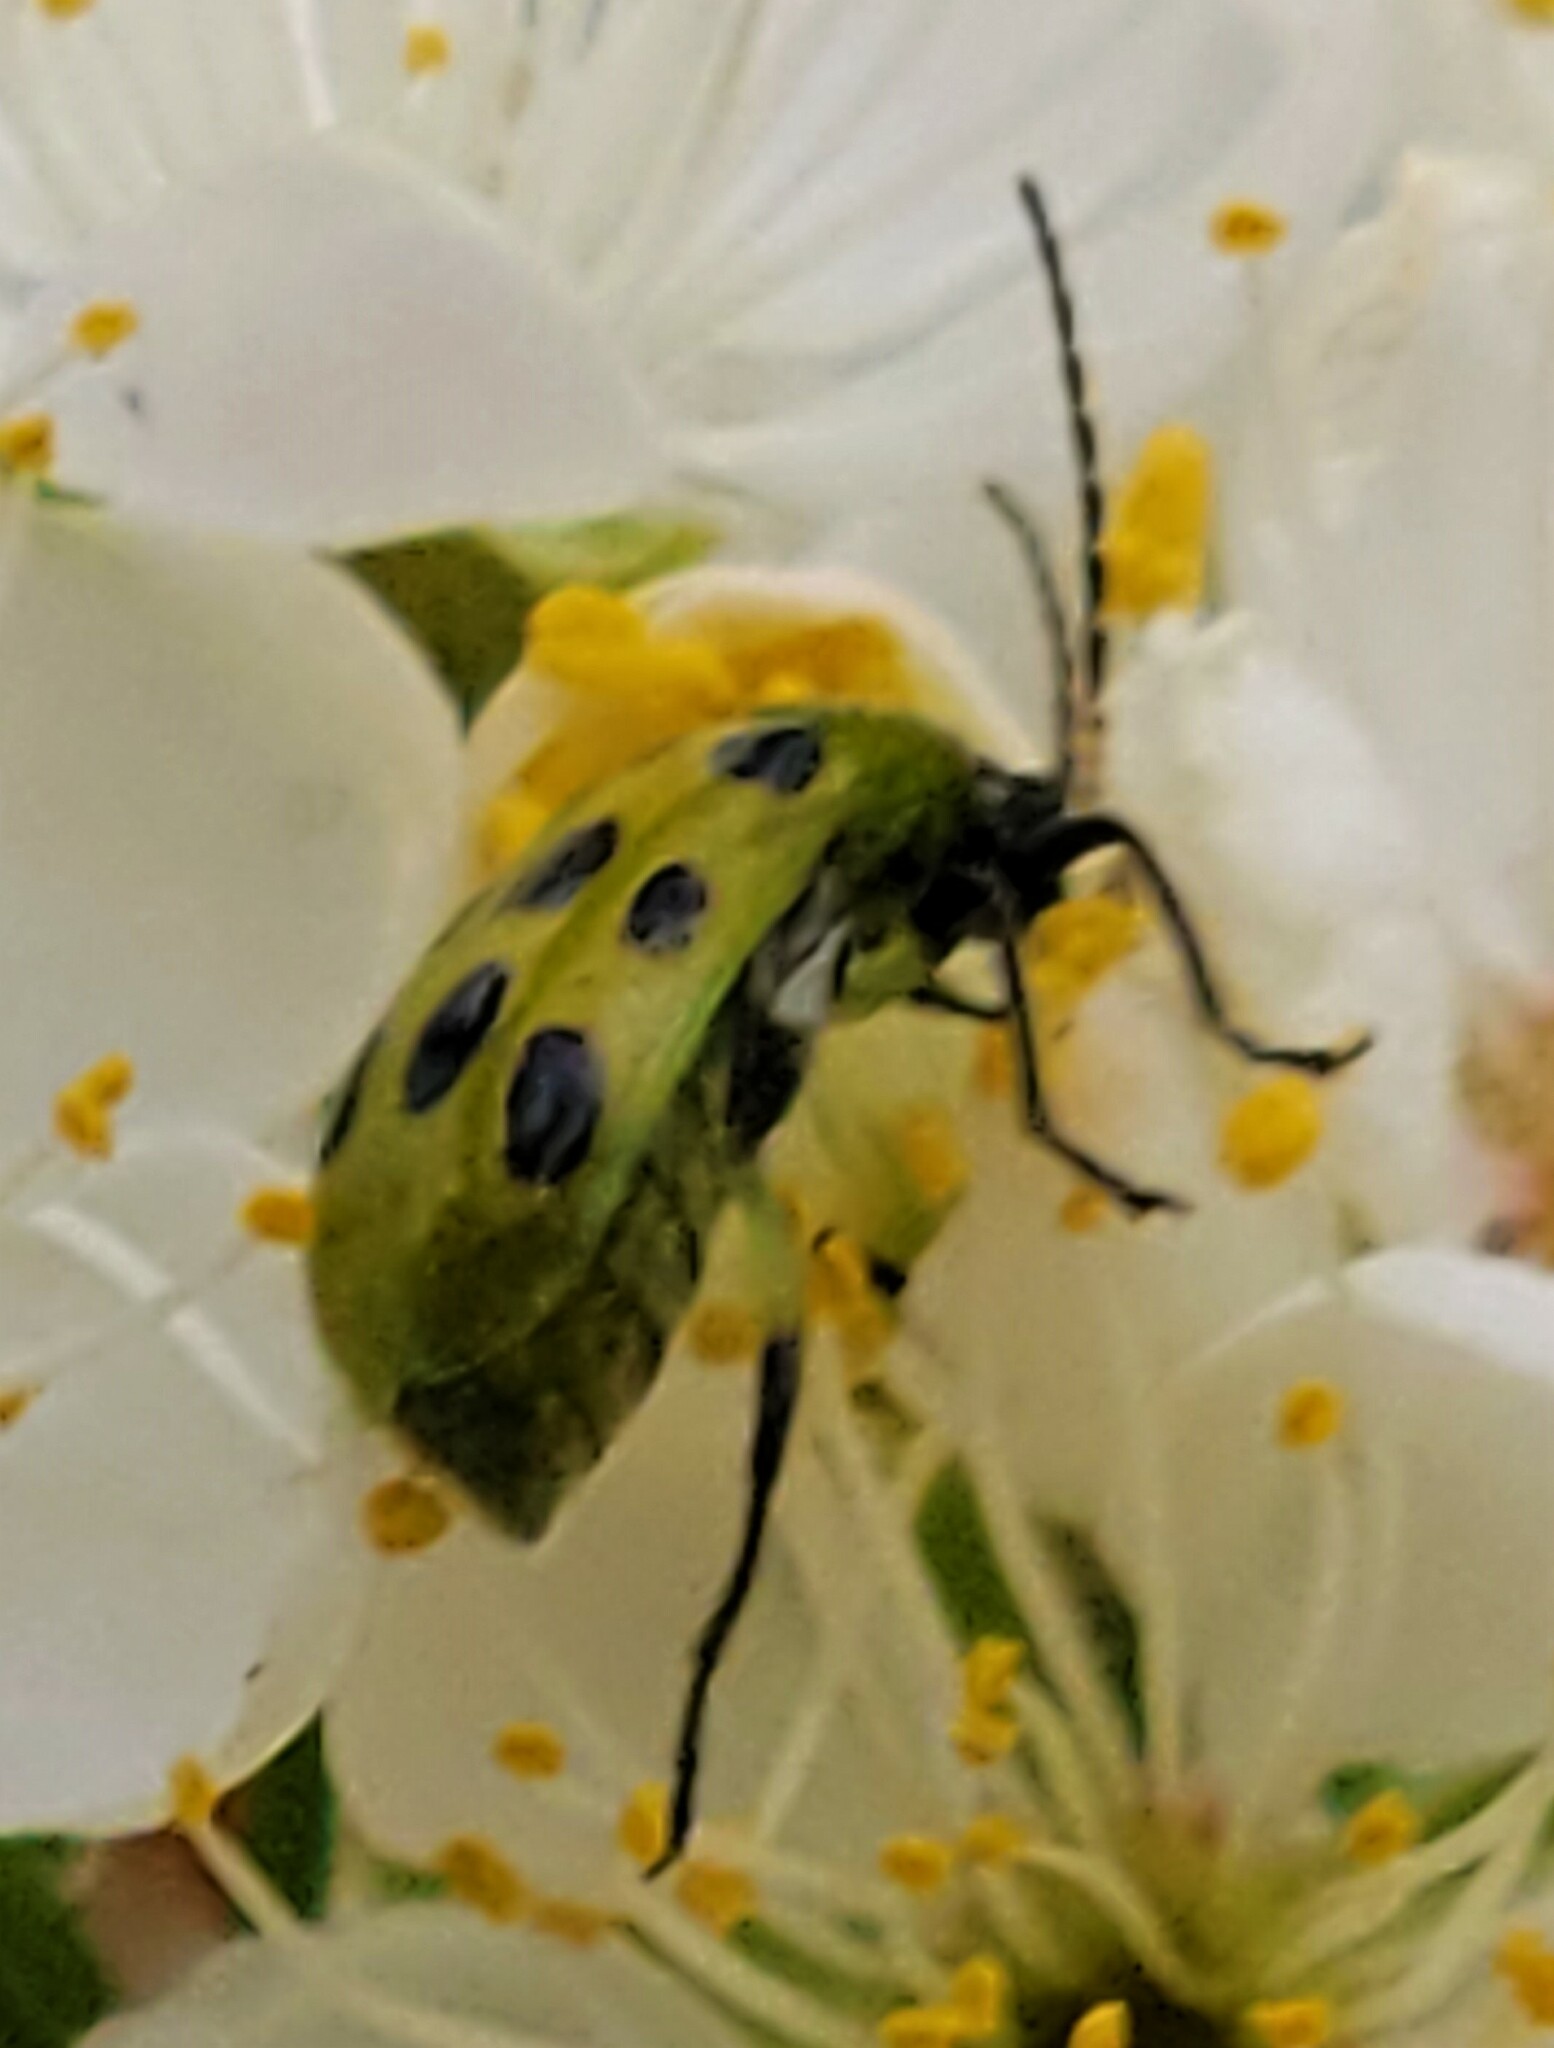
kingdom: Animalia
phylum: Arthropoda
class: Insecta
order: Coleoptera
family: Chrysomelidae
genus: Diabrotica
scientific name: Diabrotica undecimpunctata
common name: Spotted cucumber beetle
